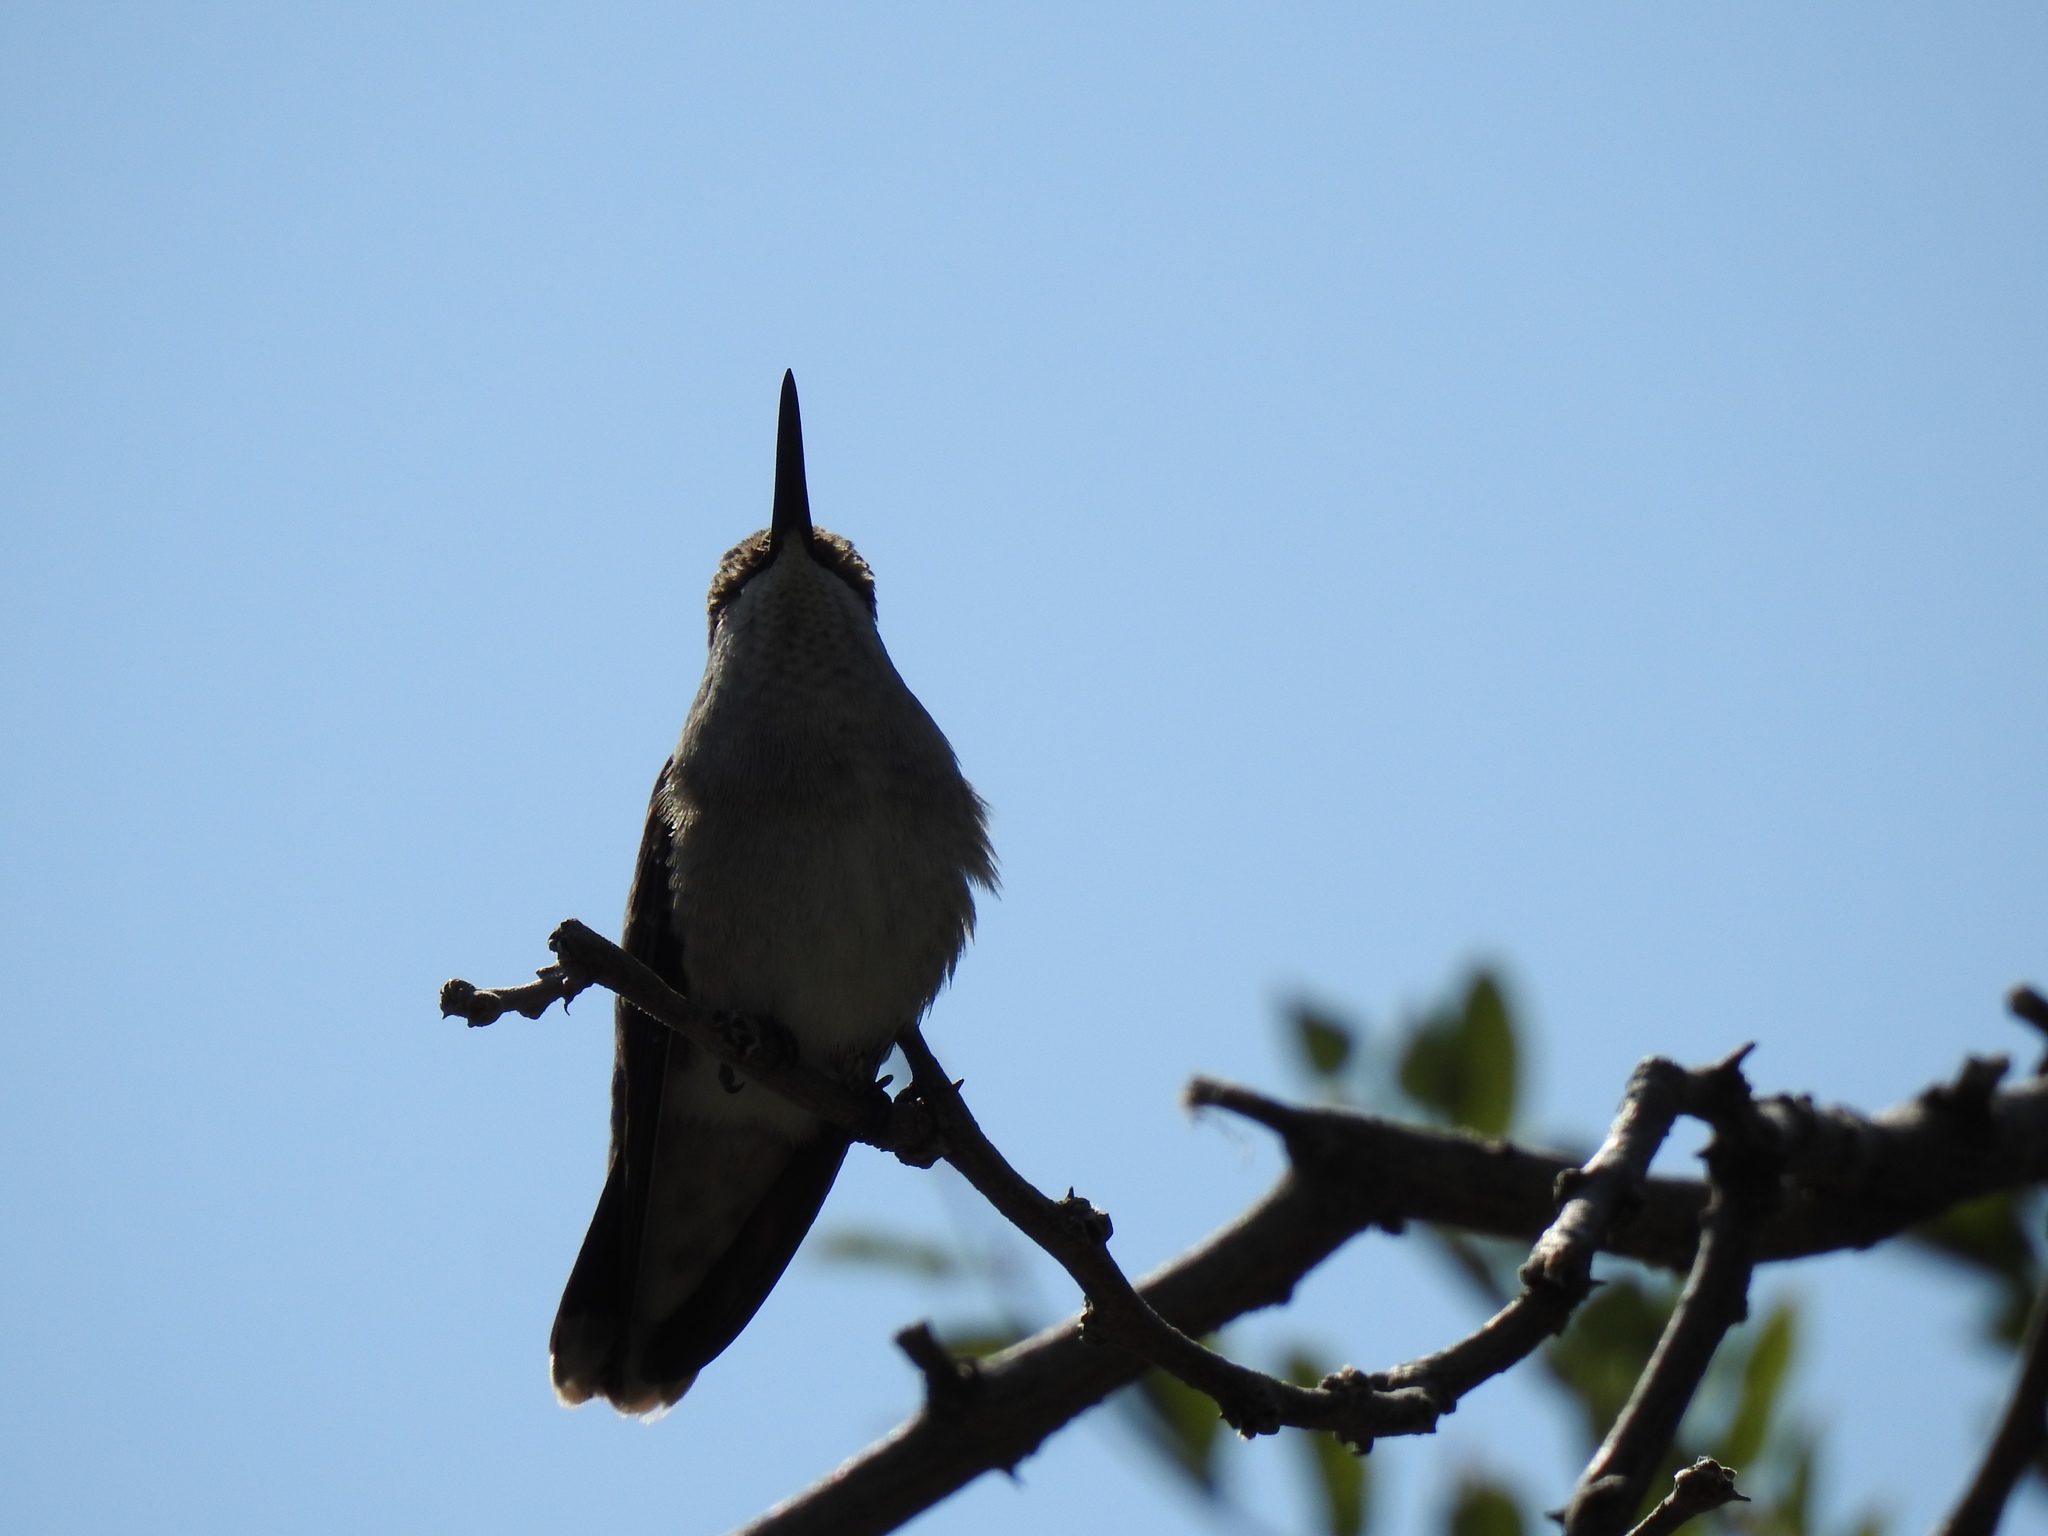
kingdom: Animalia
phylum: Chordata
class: Aves
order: Apodiformes
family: Trochilidae
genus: Archilochus
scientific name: Archilochus alexandri
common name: Black-chinned hummingbird
